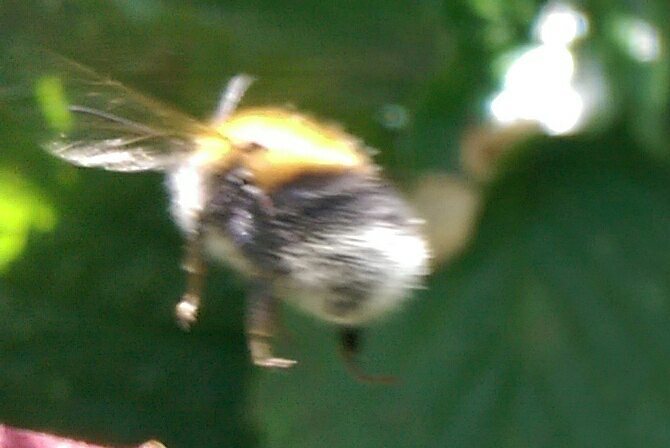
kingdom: Animalia
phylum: Arthropoda
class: Insecta
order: Hymenoptera
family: Apidae
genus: Bombus
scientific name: Bombus hypnorum
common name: New garden bumblebee
